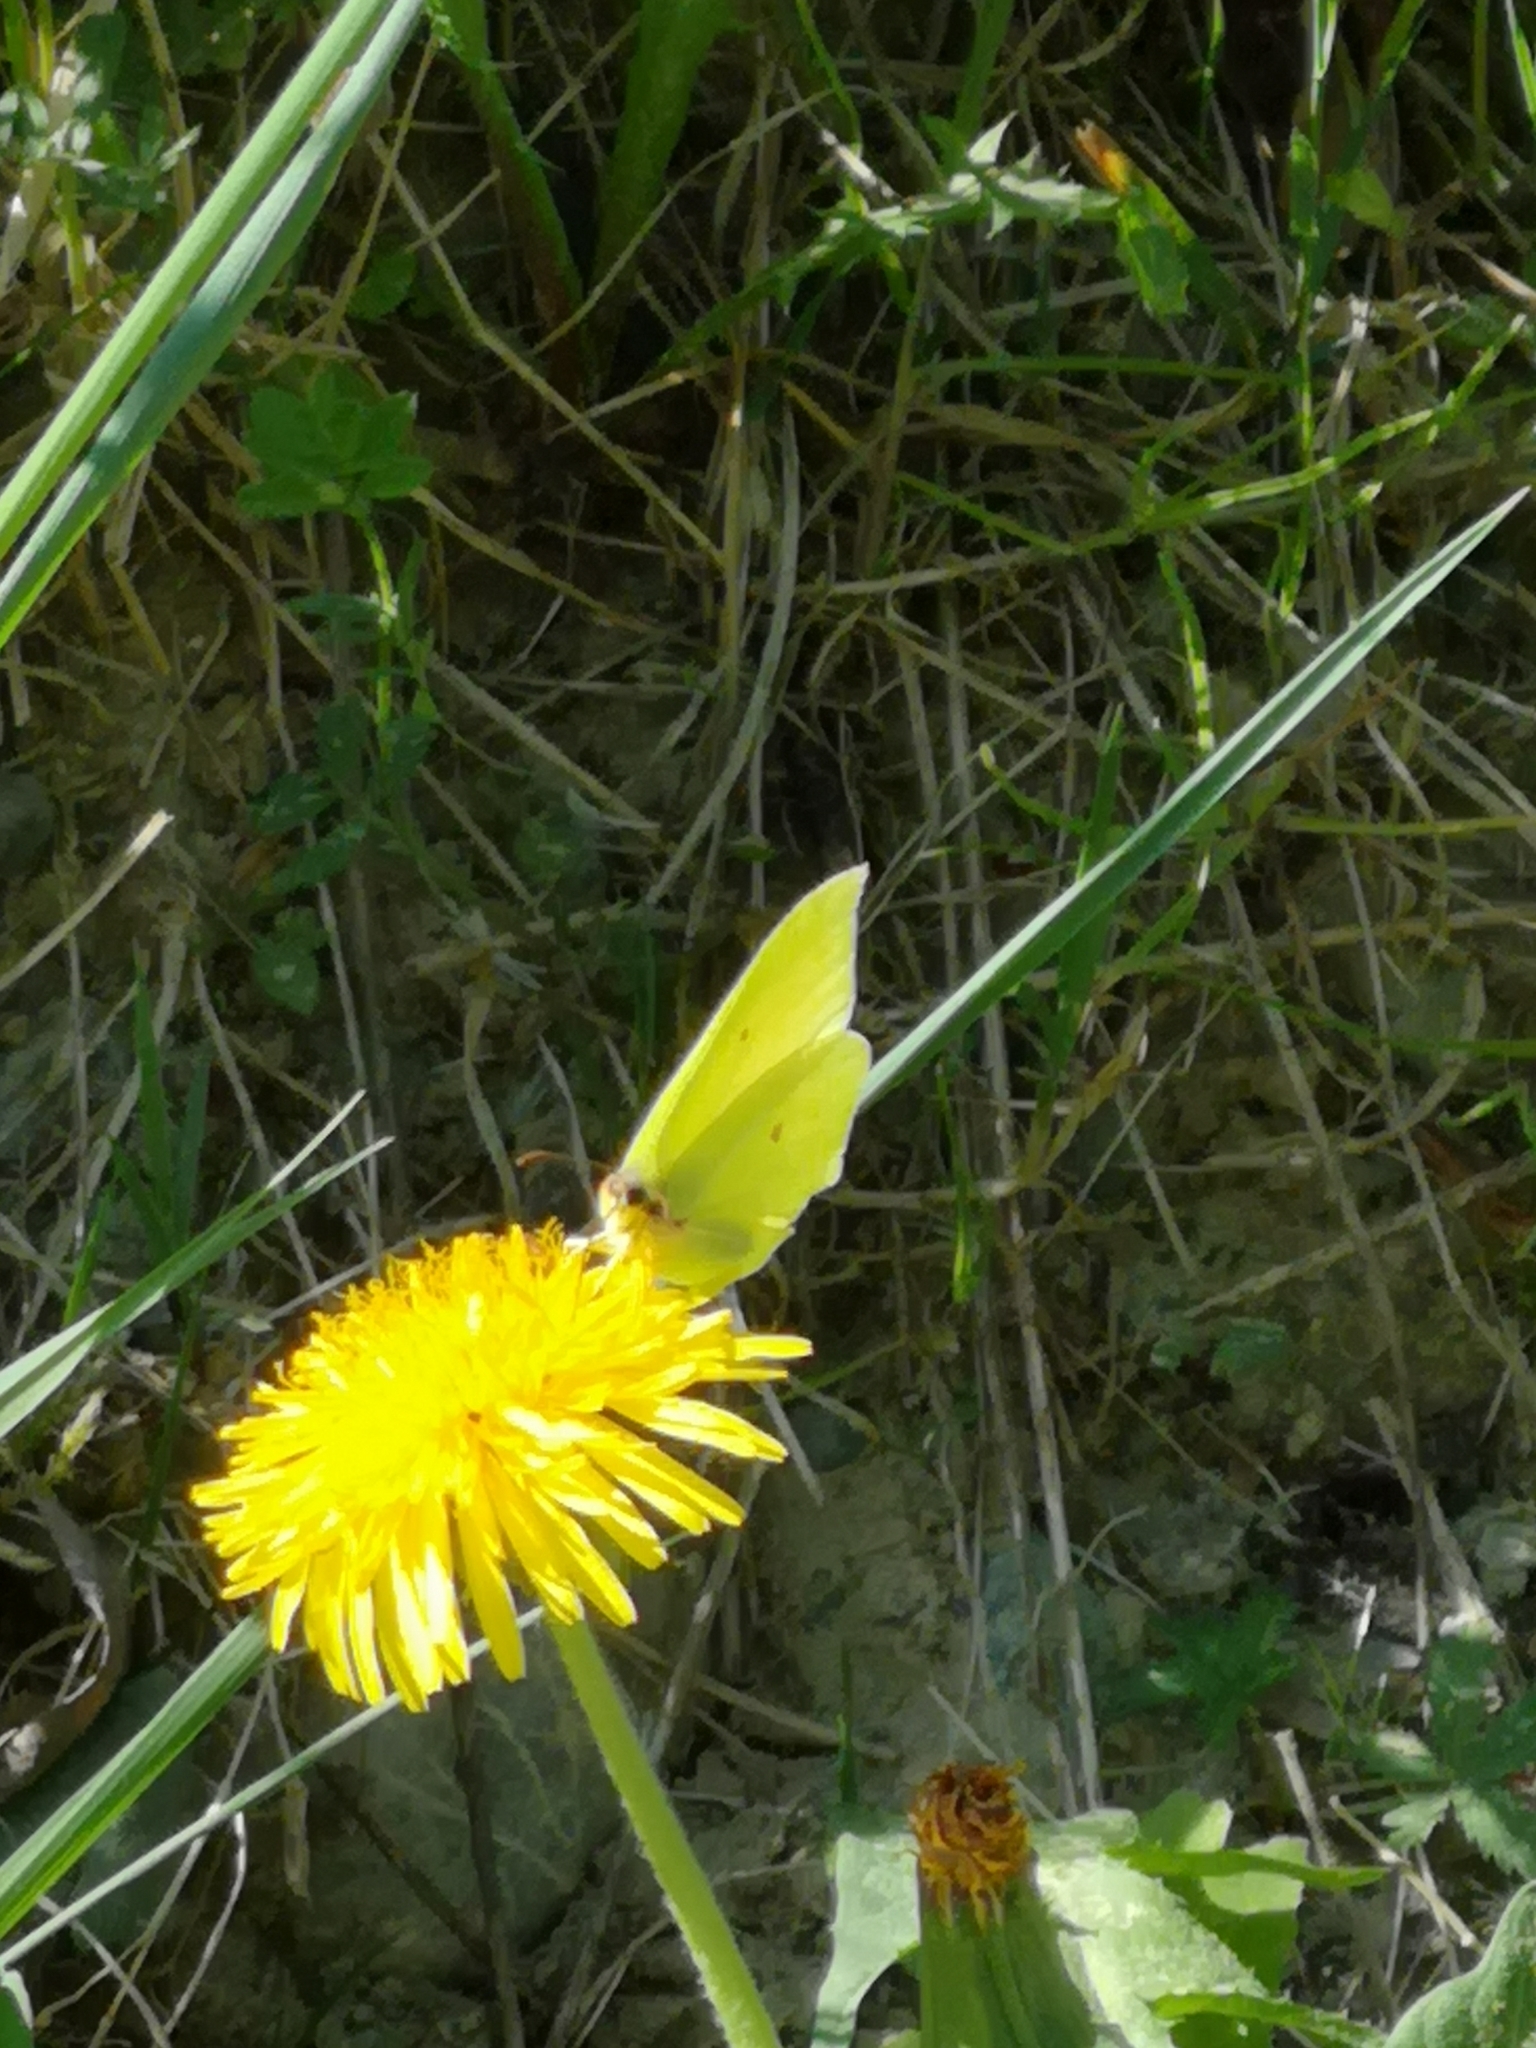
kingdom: Animalia
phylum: Arthropoda
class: Insecta
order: Lepidoptera
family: Pieridae
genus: Gonepteryx
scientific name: Gonepteryx rhamni
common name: Brimstone
